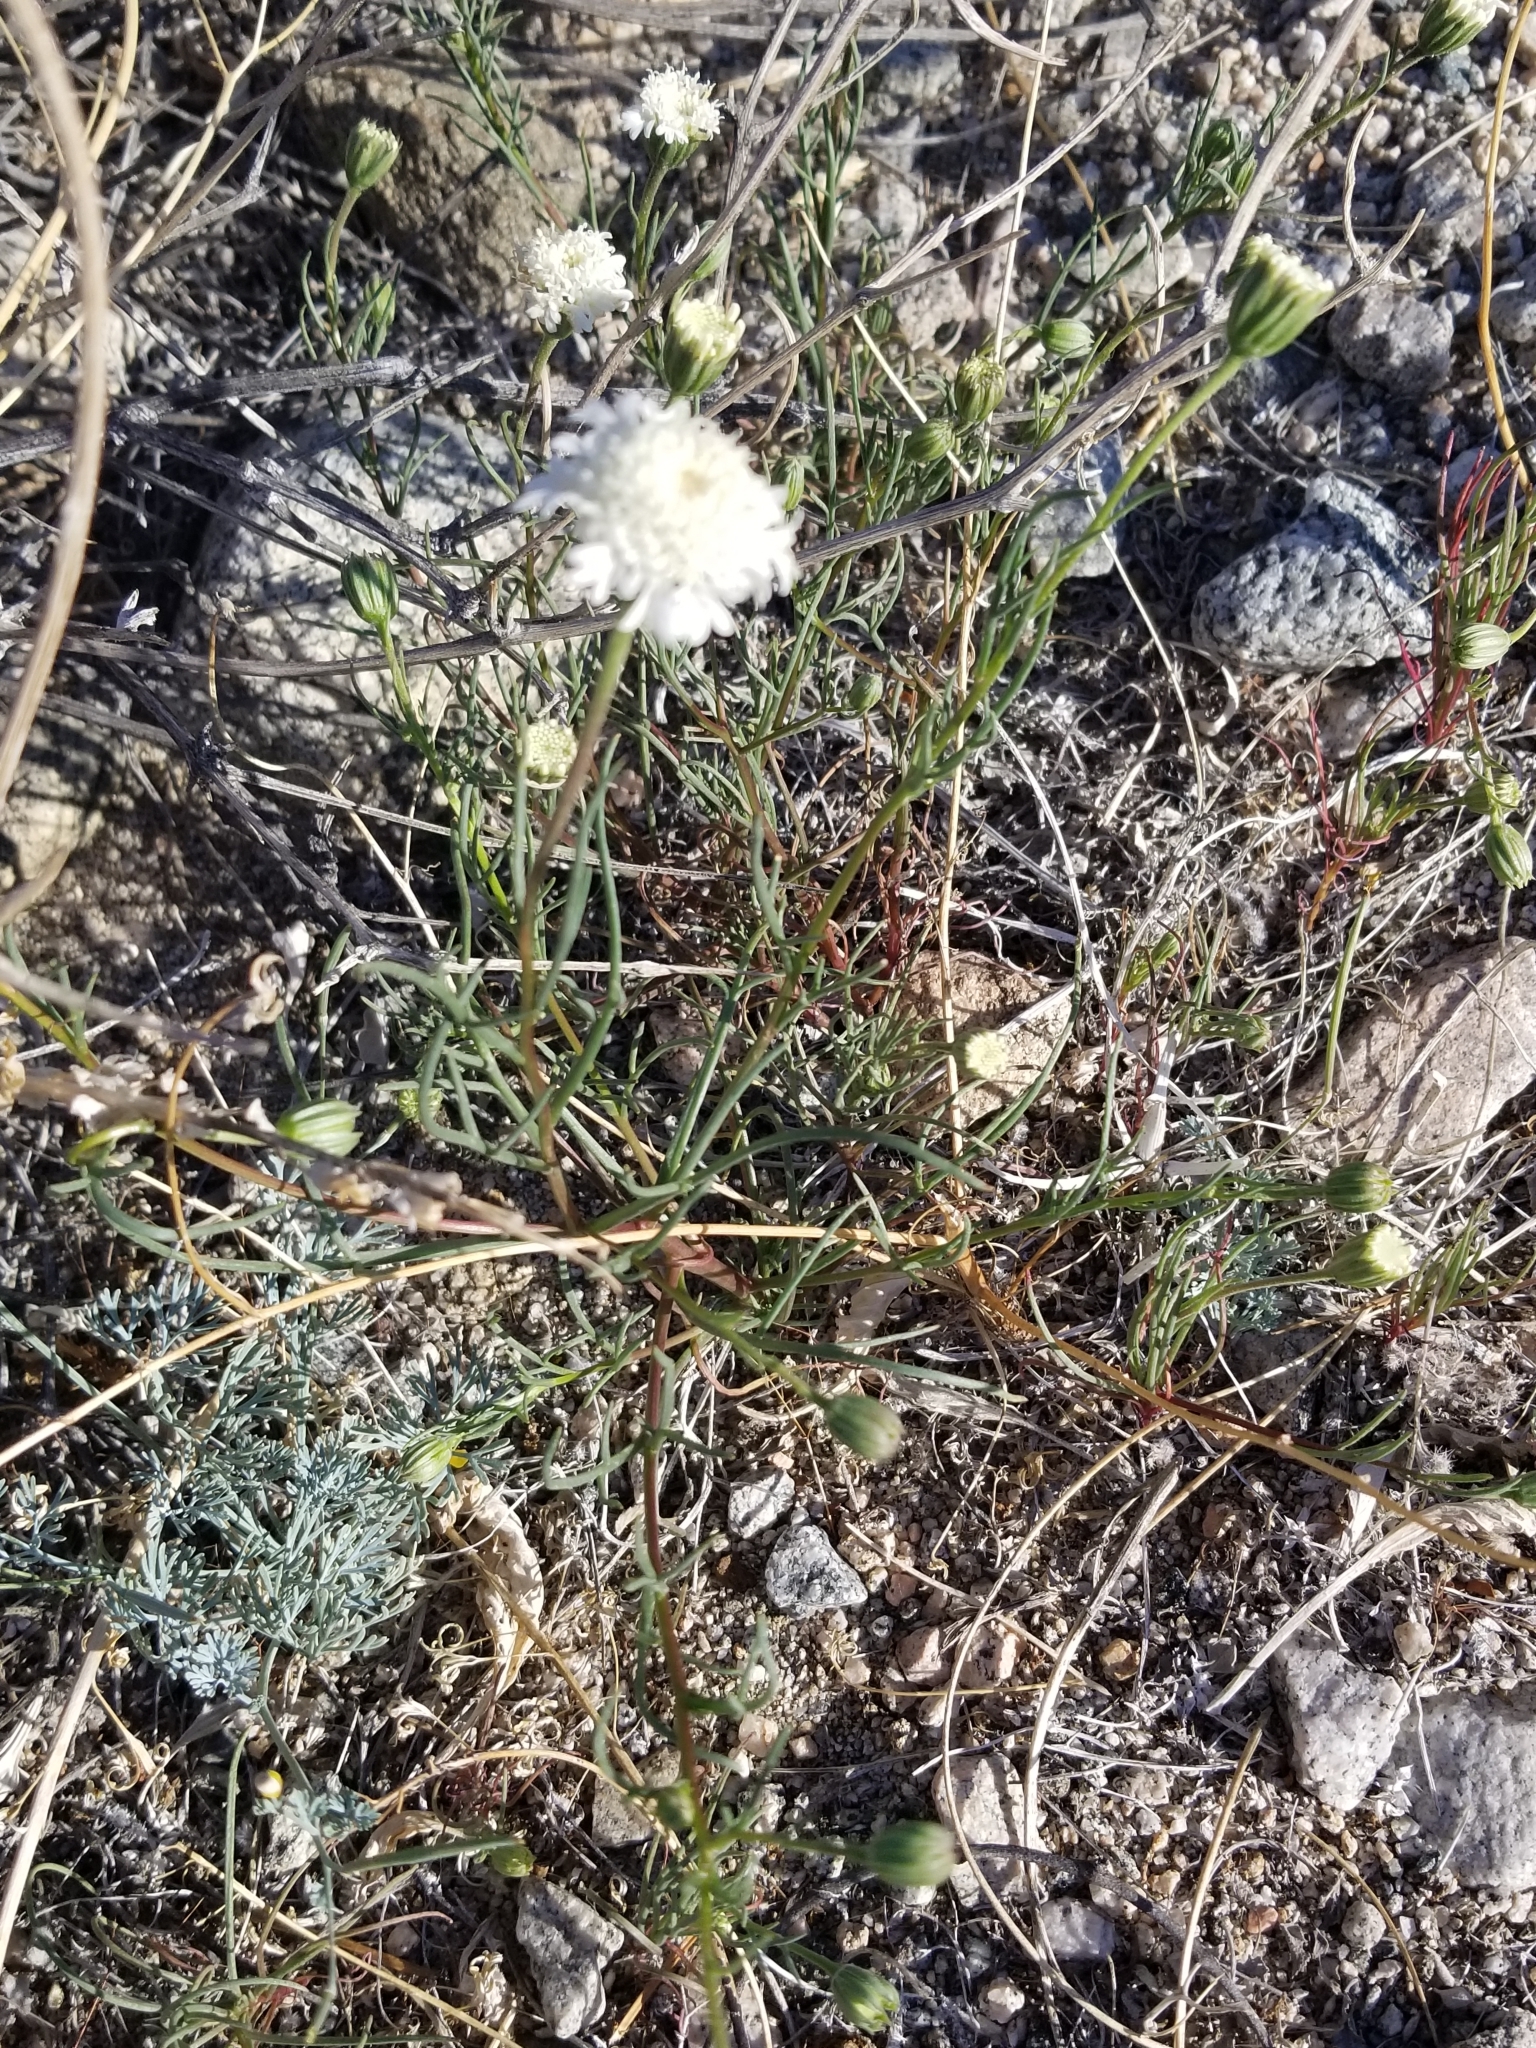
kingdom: Plantae
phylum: Tracheophyta
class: Magnoliopsida
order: Asterales
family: Asteraceae
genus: Chaenactis
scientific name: Chaenactis fremontii
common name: Fremont pincushion
